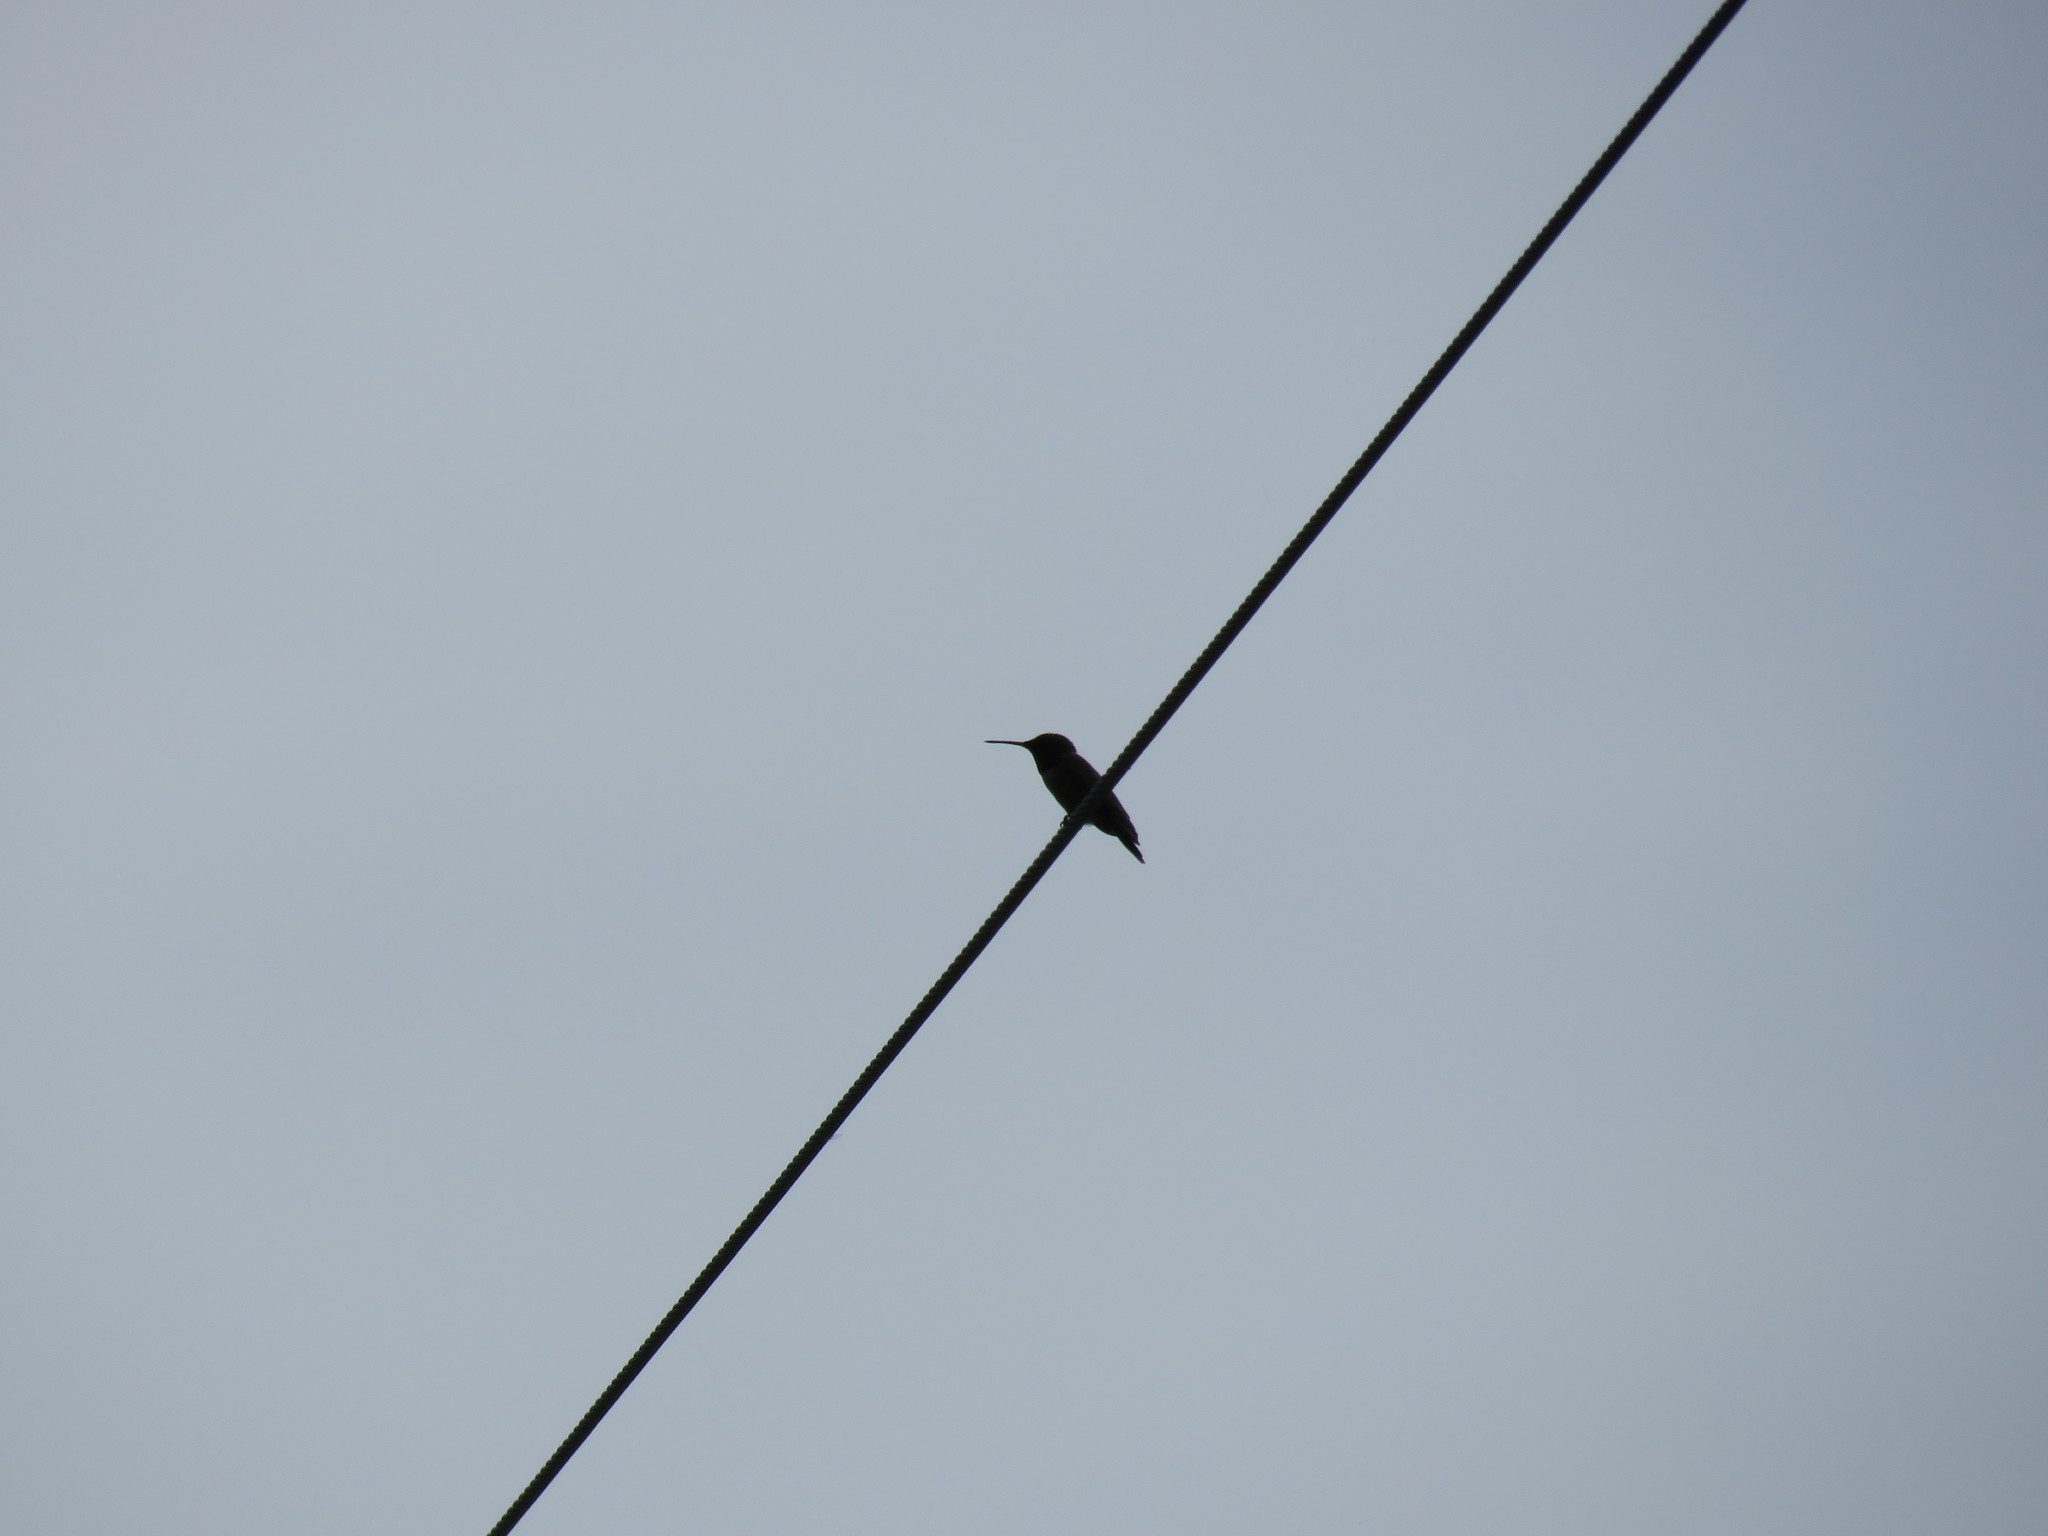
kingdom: Animalia
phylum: Chordata
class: Aves
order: Apodiformes
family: Trochilidae
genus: Archilochus
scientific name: Archilochus colubris
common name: Ruby-throated hummingbird
